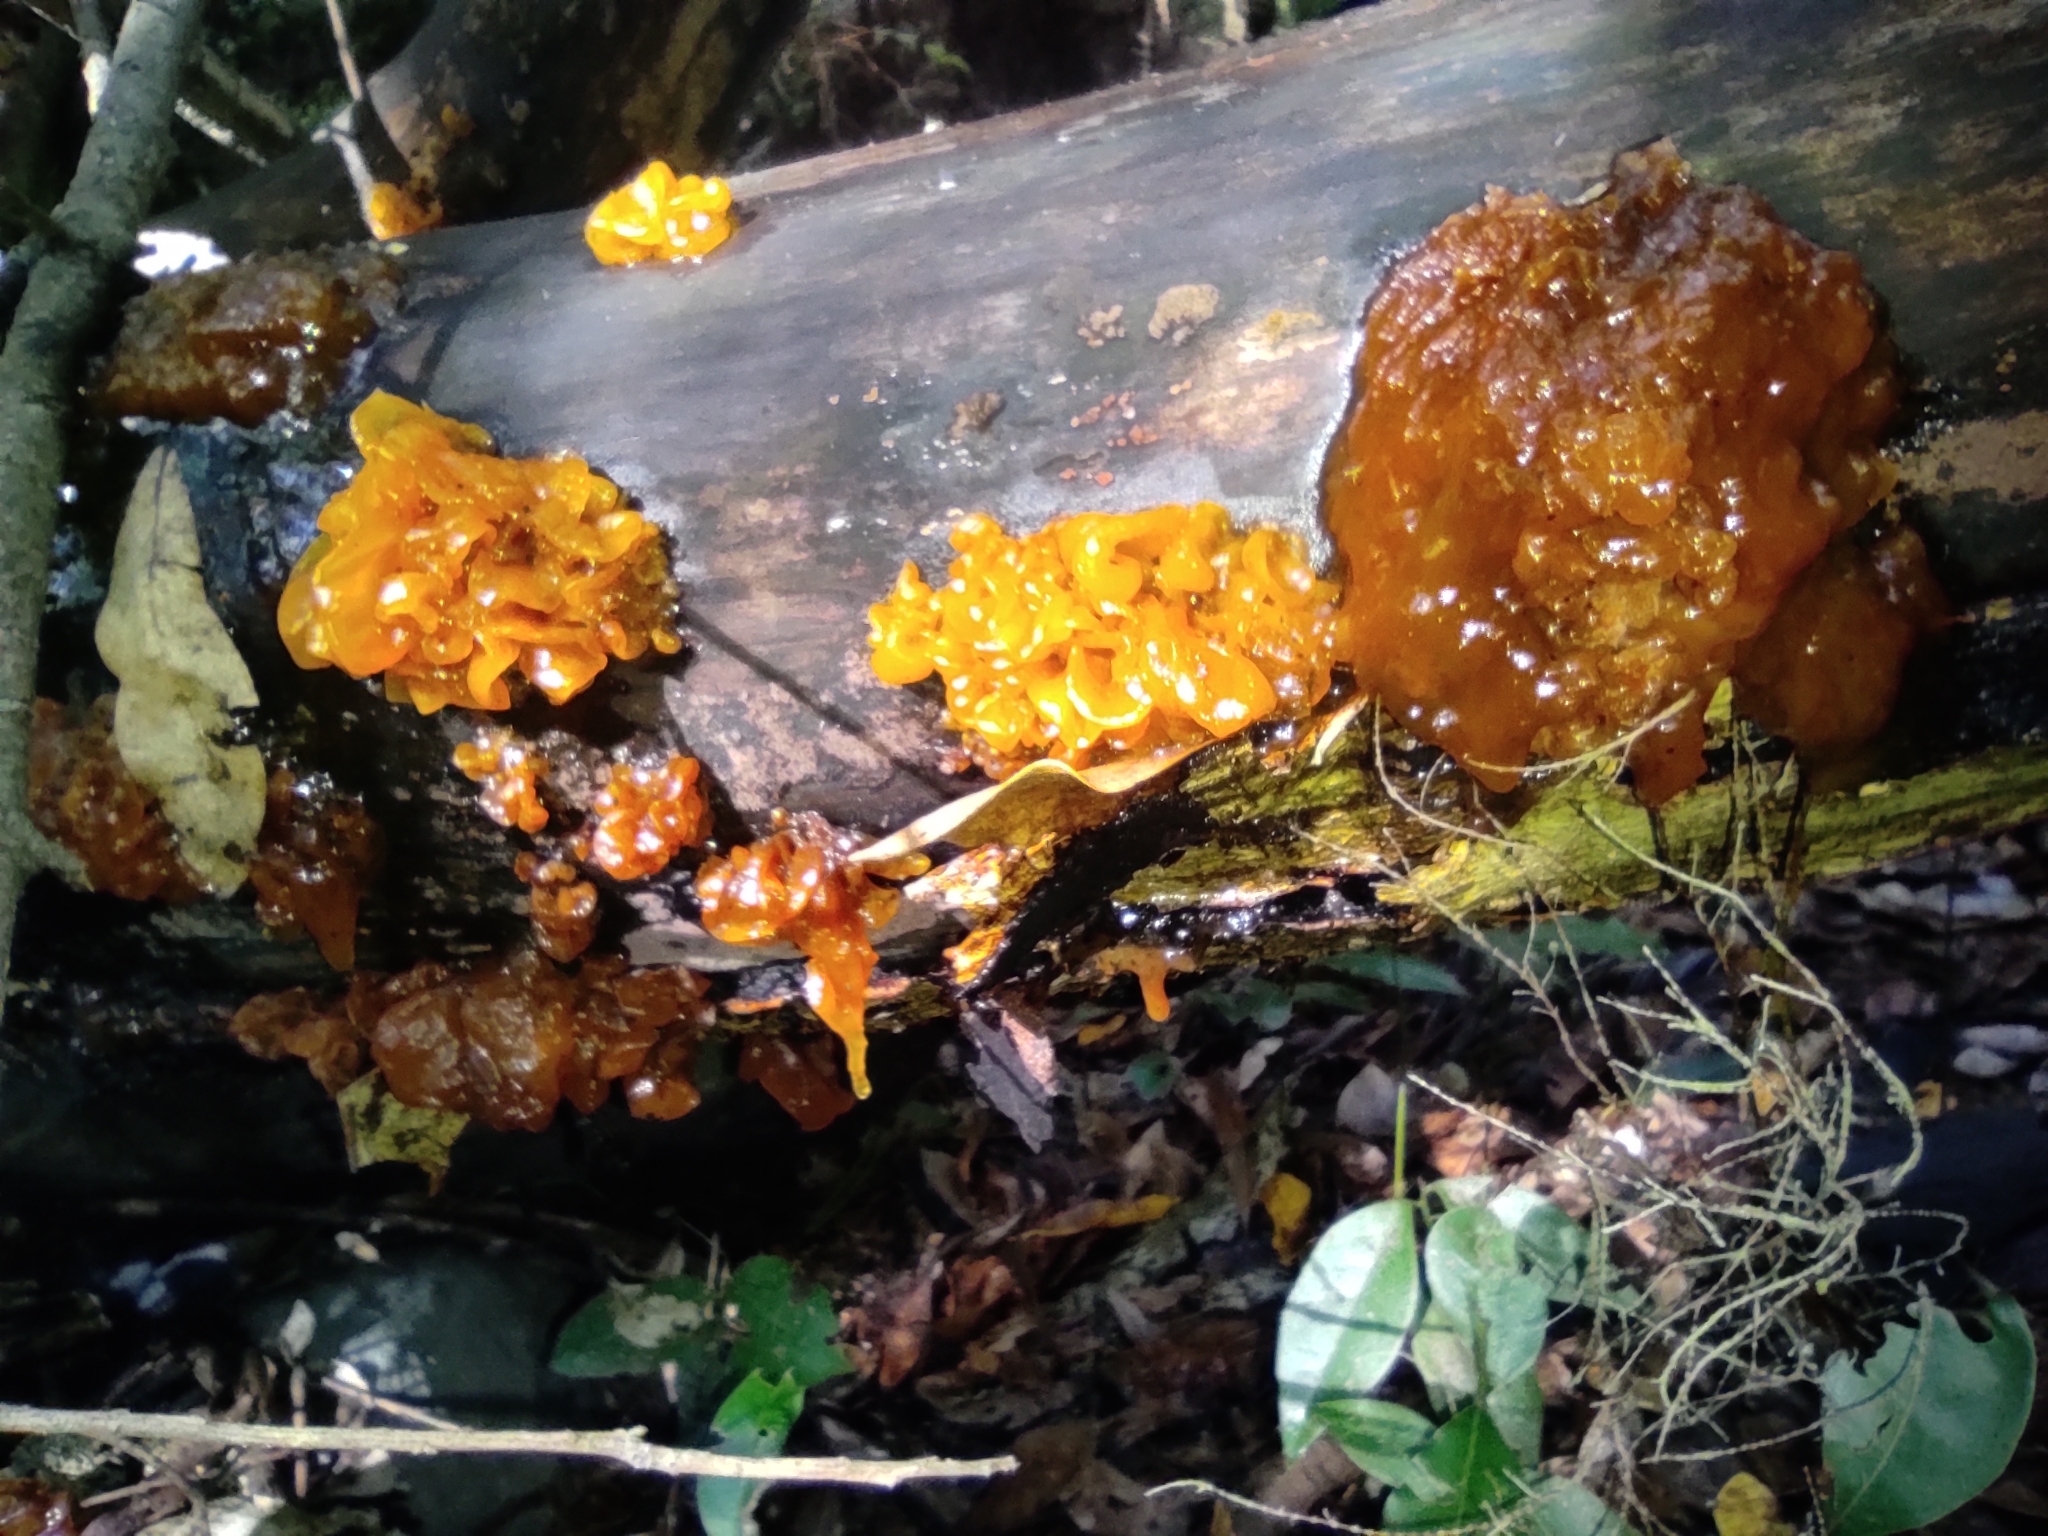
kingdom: Fungi
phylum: Basidiomycota
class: Tremellomycetes
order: Tremellales
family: Tremellaceae
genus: Tremella
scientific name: Tremella mesenterica
